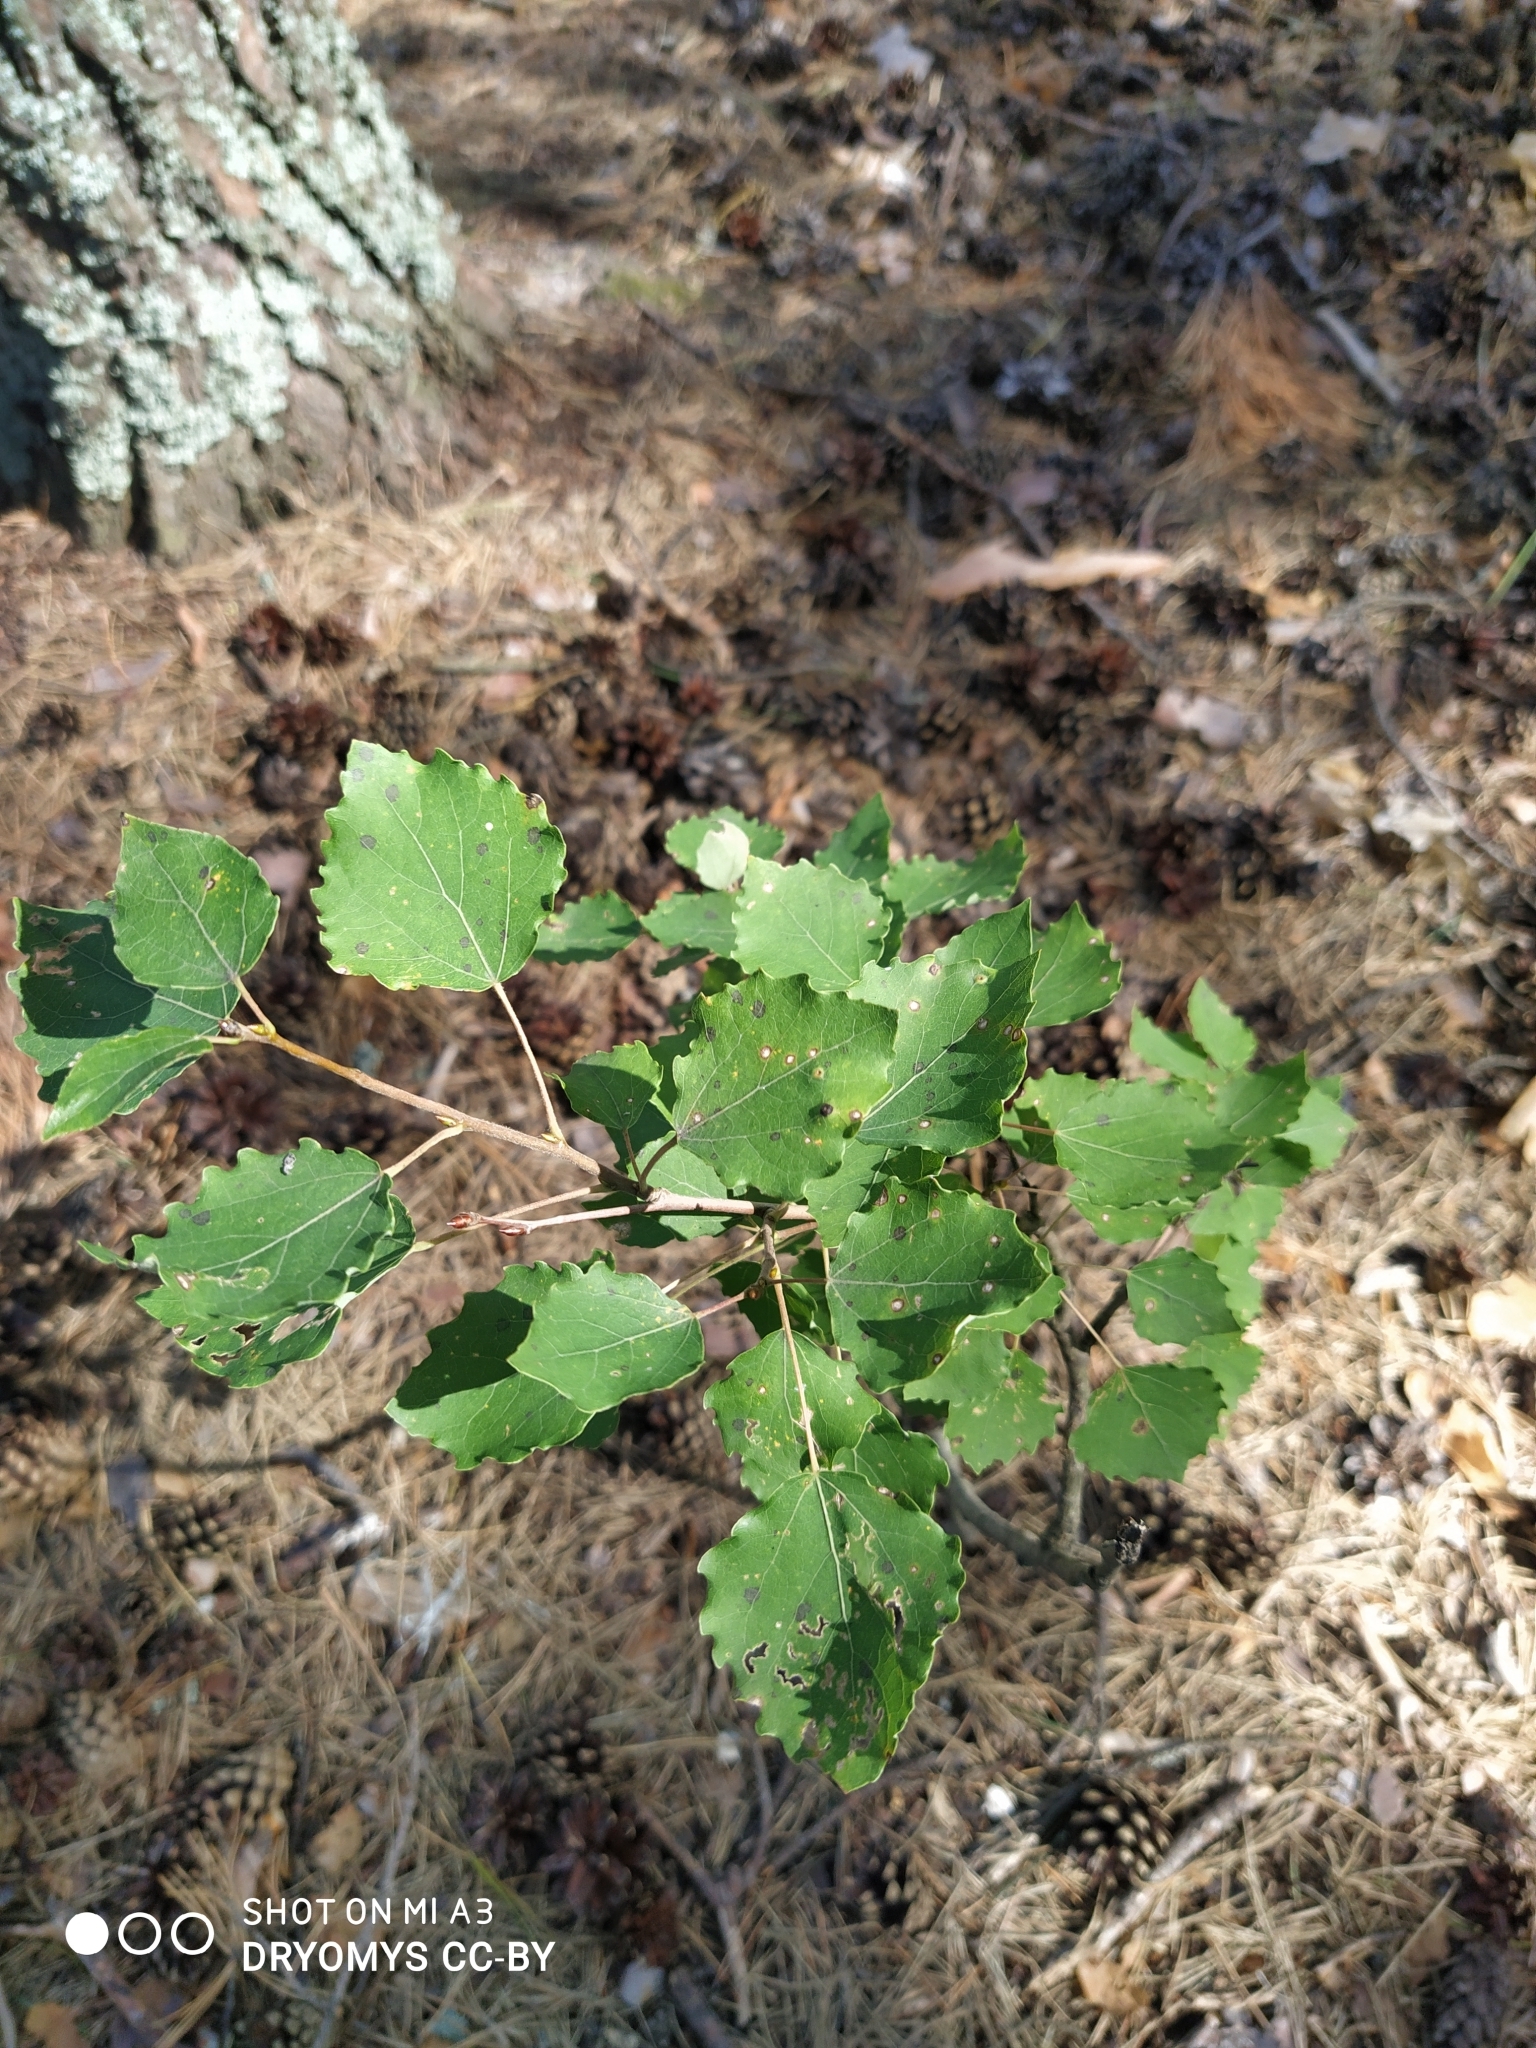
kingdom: Plantae
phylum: Tracheophyta
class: Magnoliopsida
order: Malpighiales
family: Salicaceae
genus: Populus
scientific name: Populus tremula
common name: European aspen
